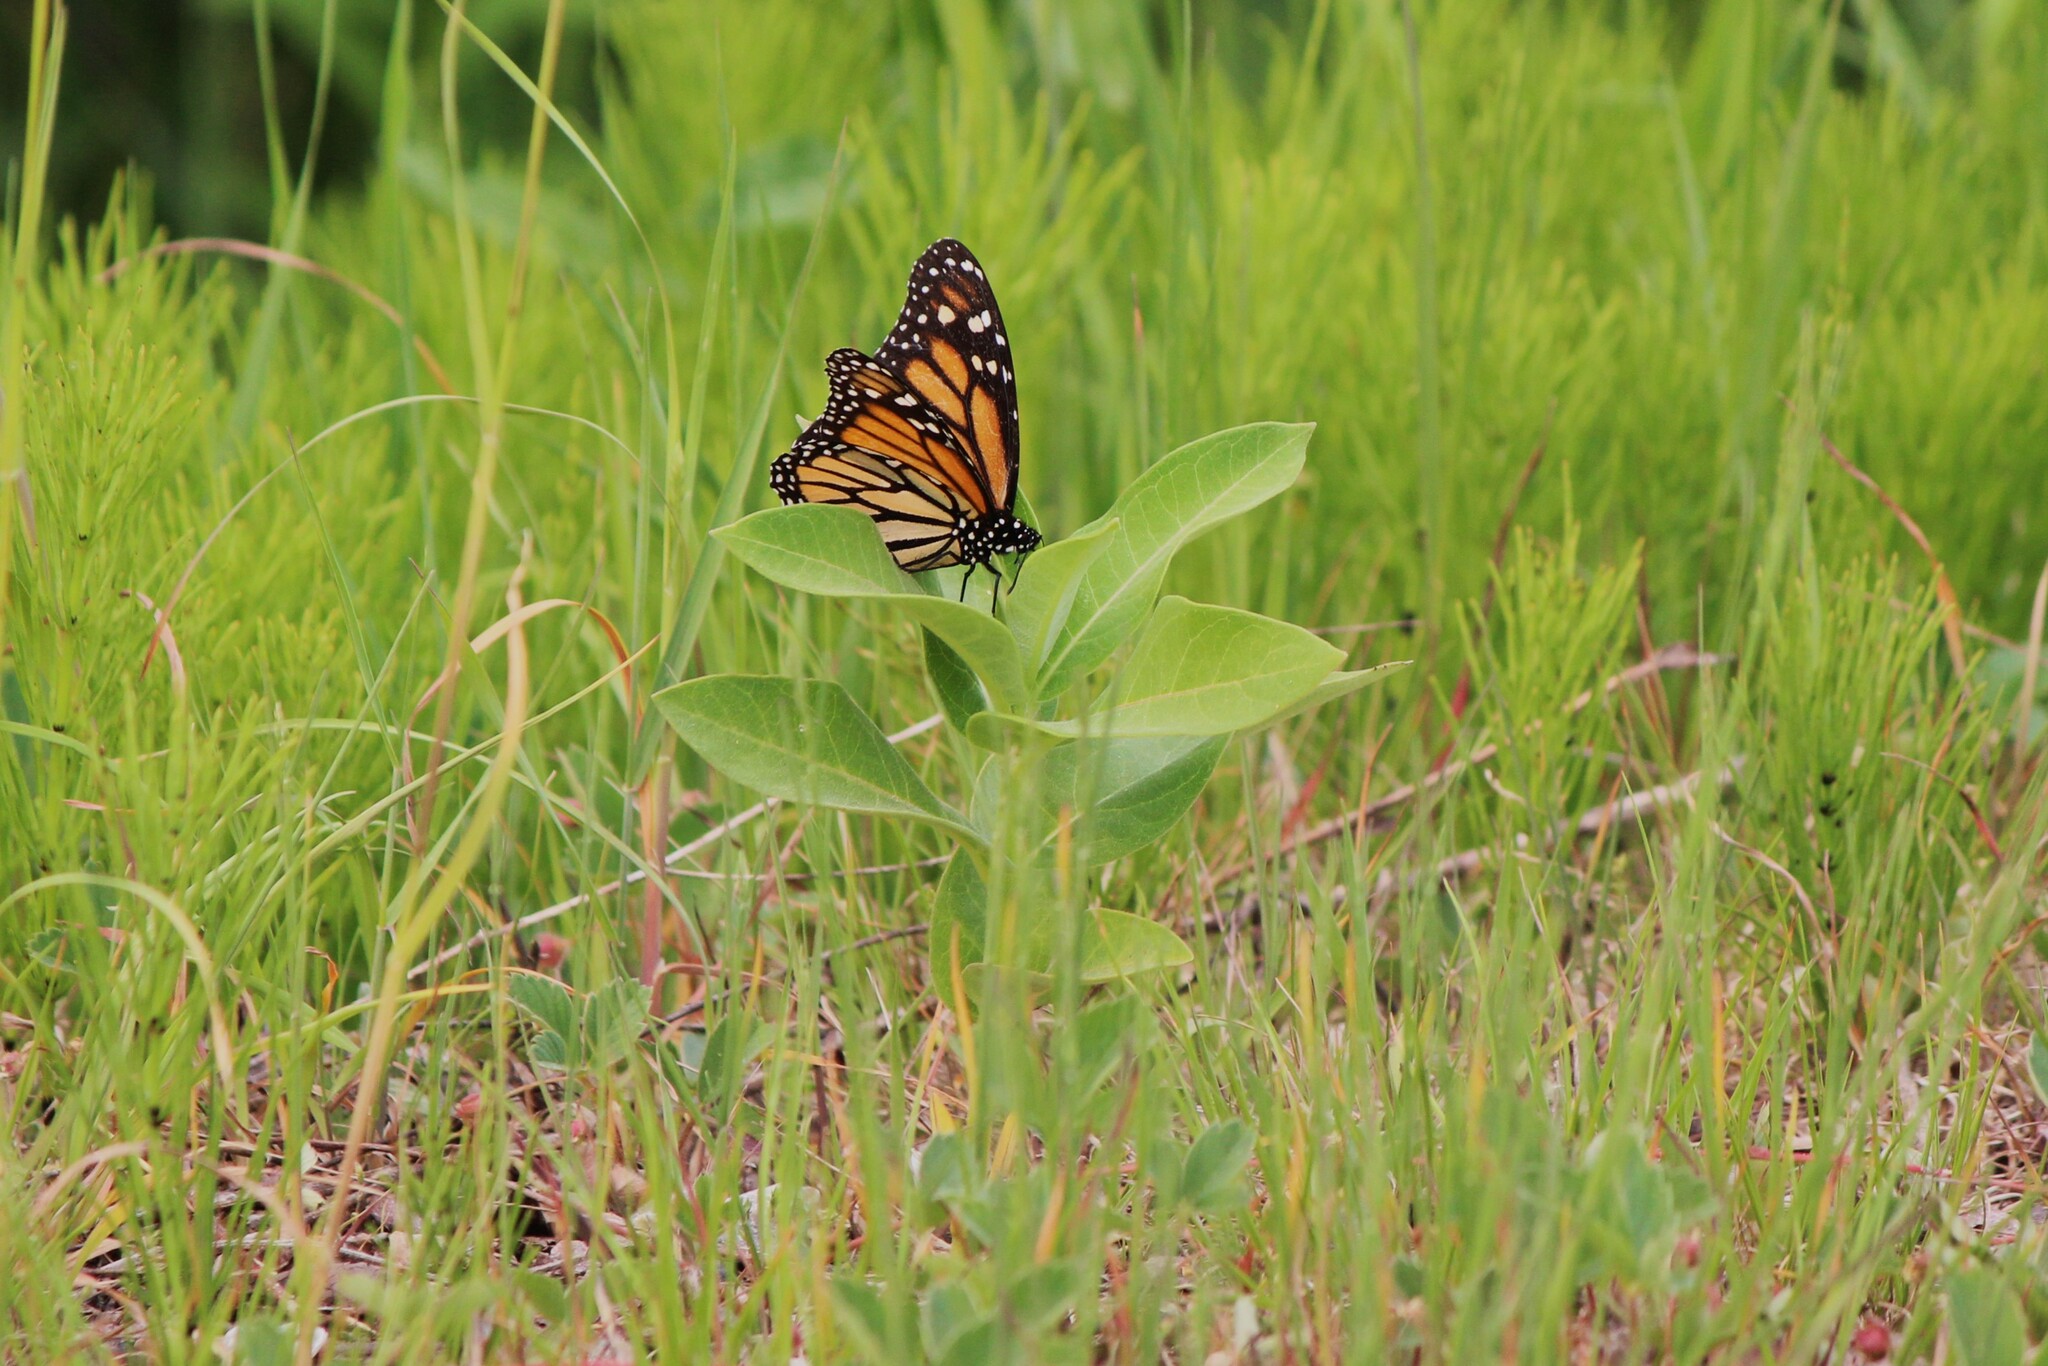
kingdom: Animalia
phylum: Arthropoda
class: Insecta
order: Lepidoptera
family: Nymphalidae
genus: Danaus
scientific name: Danaus plexippus
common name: Monarch
